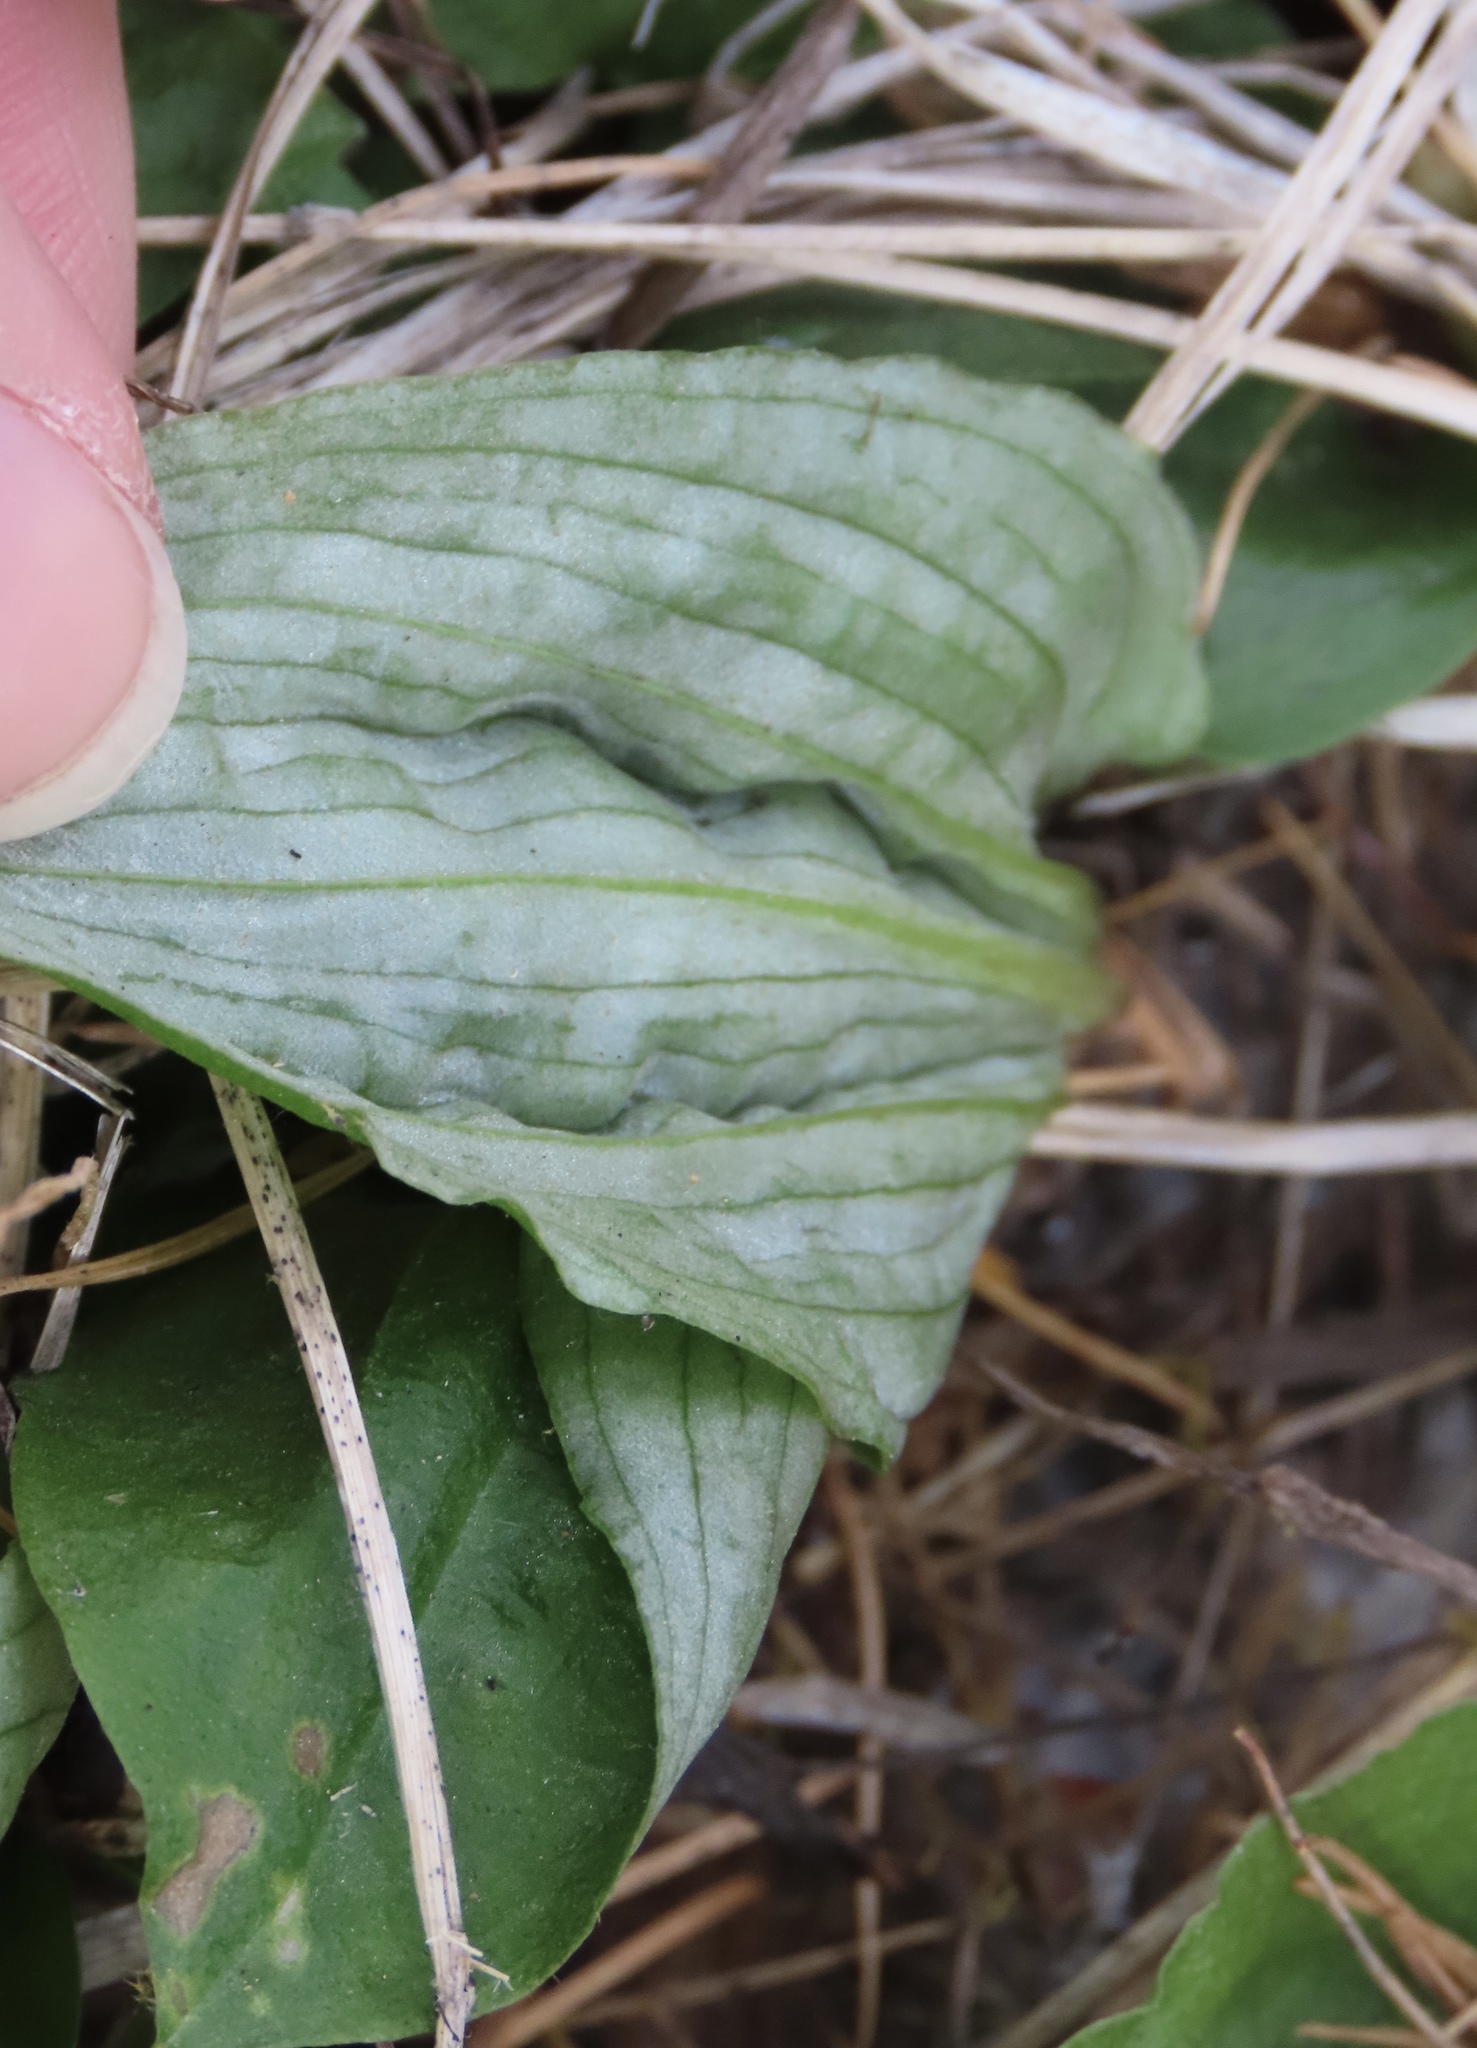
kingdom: Plantae
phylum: Tracheophyta
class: Liliopsida
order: Asparagales
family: Orchidaceae
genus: Calypso
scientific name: Calypso bulbosa
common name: Calypso
